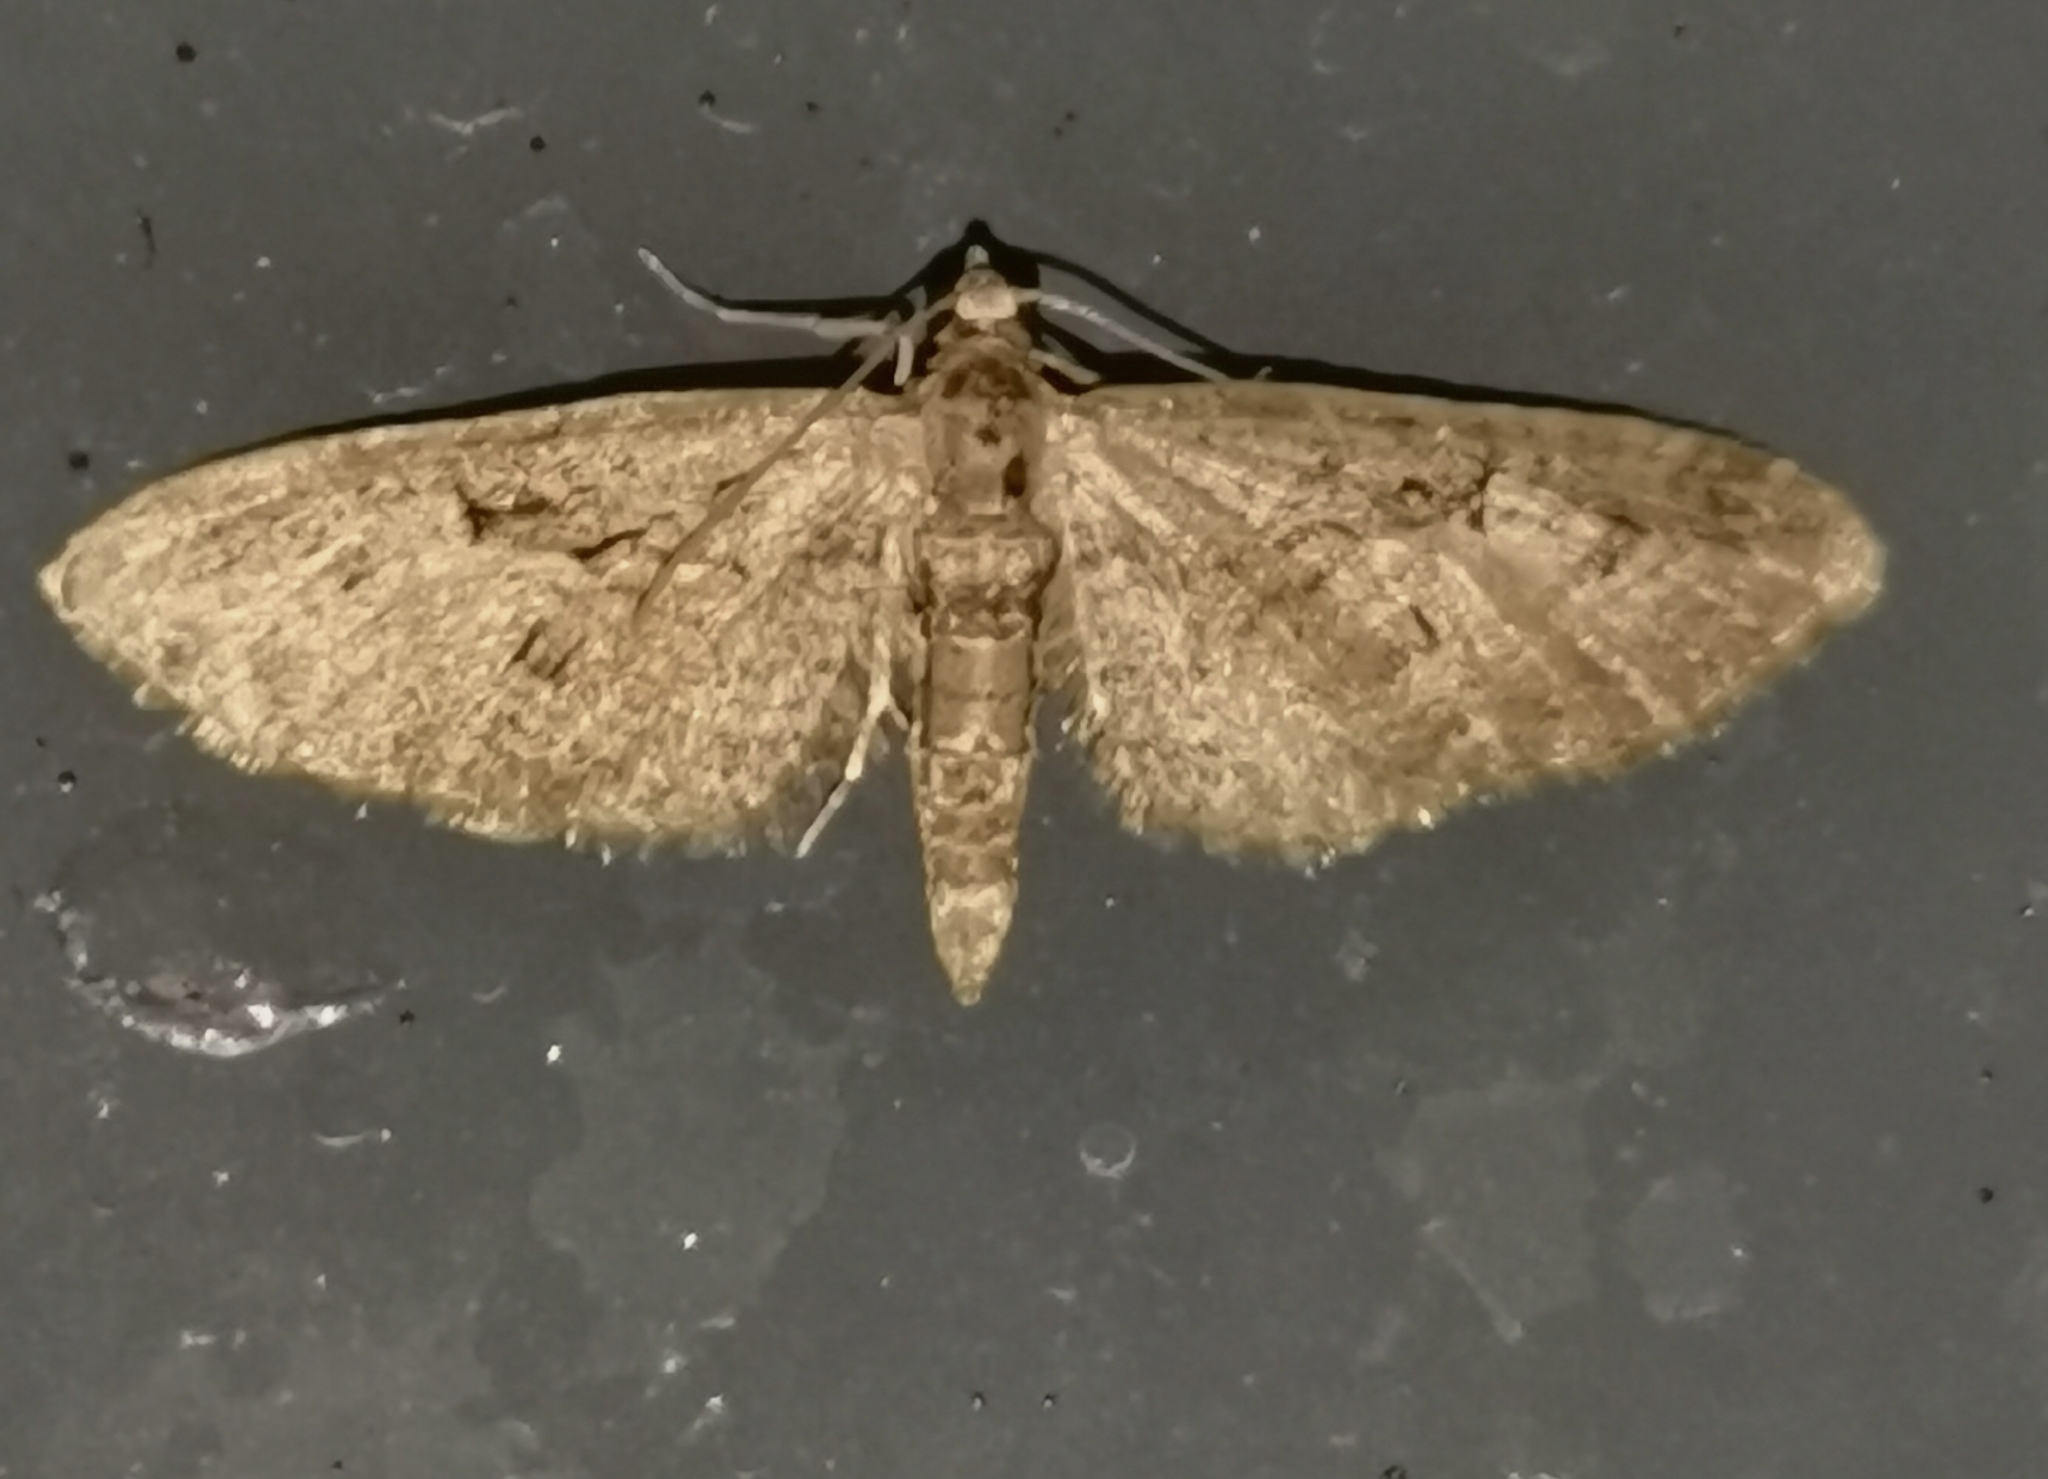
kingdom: Animalia
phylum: Arthropoda
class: Insecta
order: Lepidoptera
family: Geometridae
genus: Eupithecia
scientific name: Eupithecia pusillata
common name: Juniper pug
